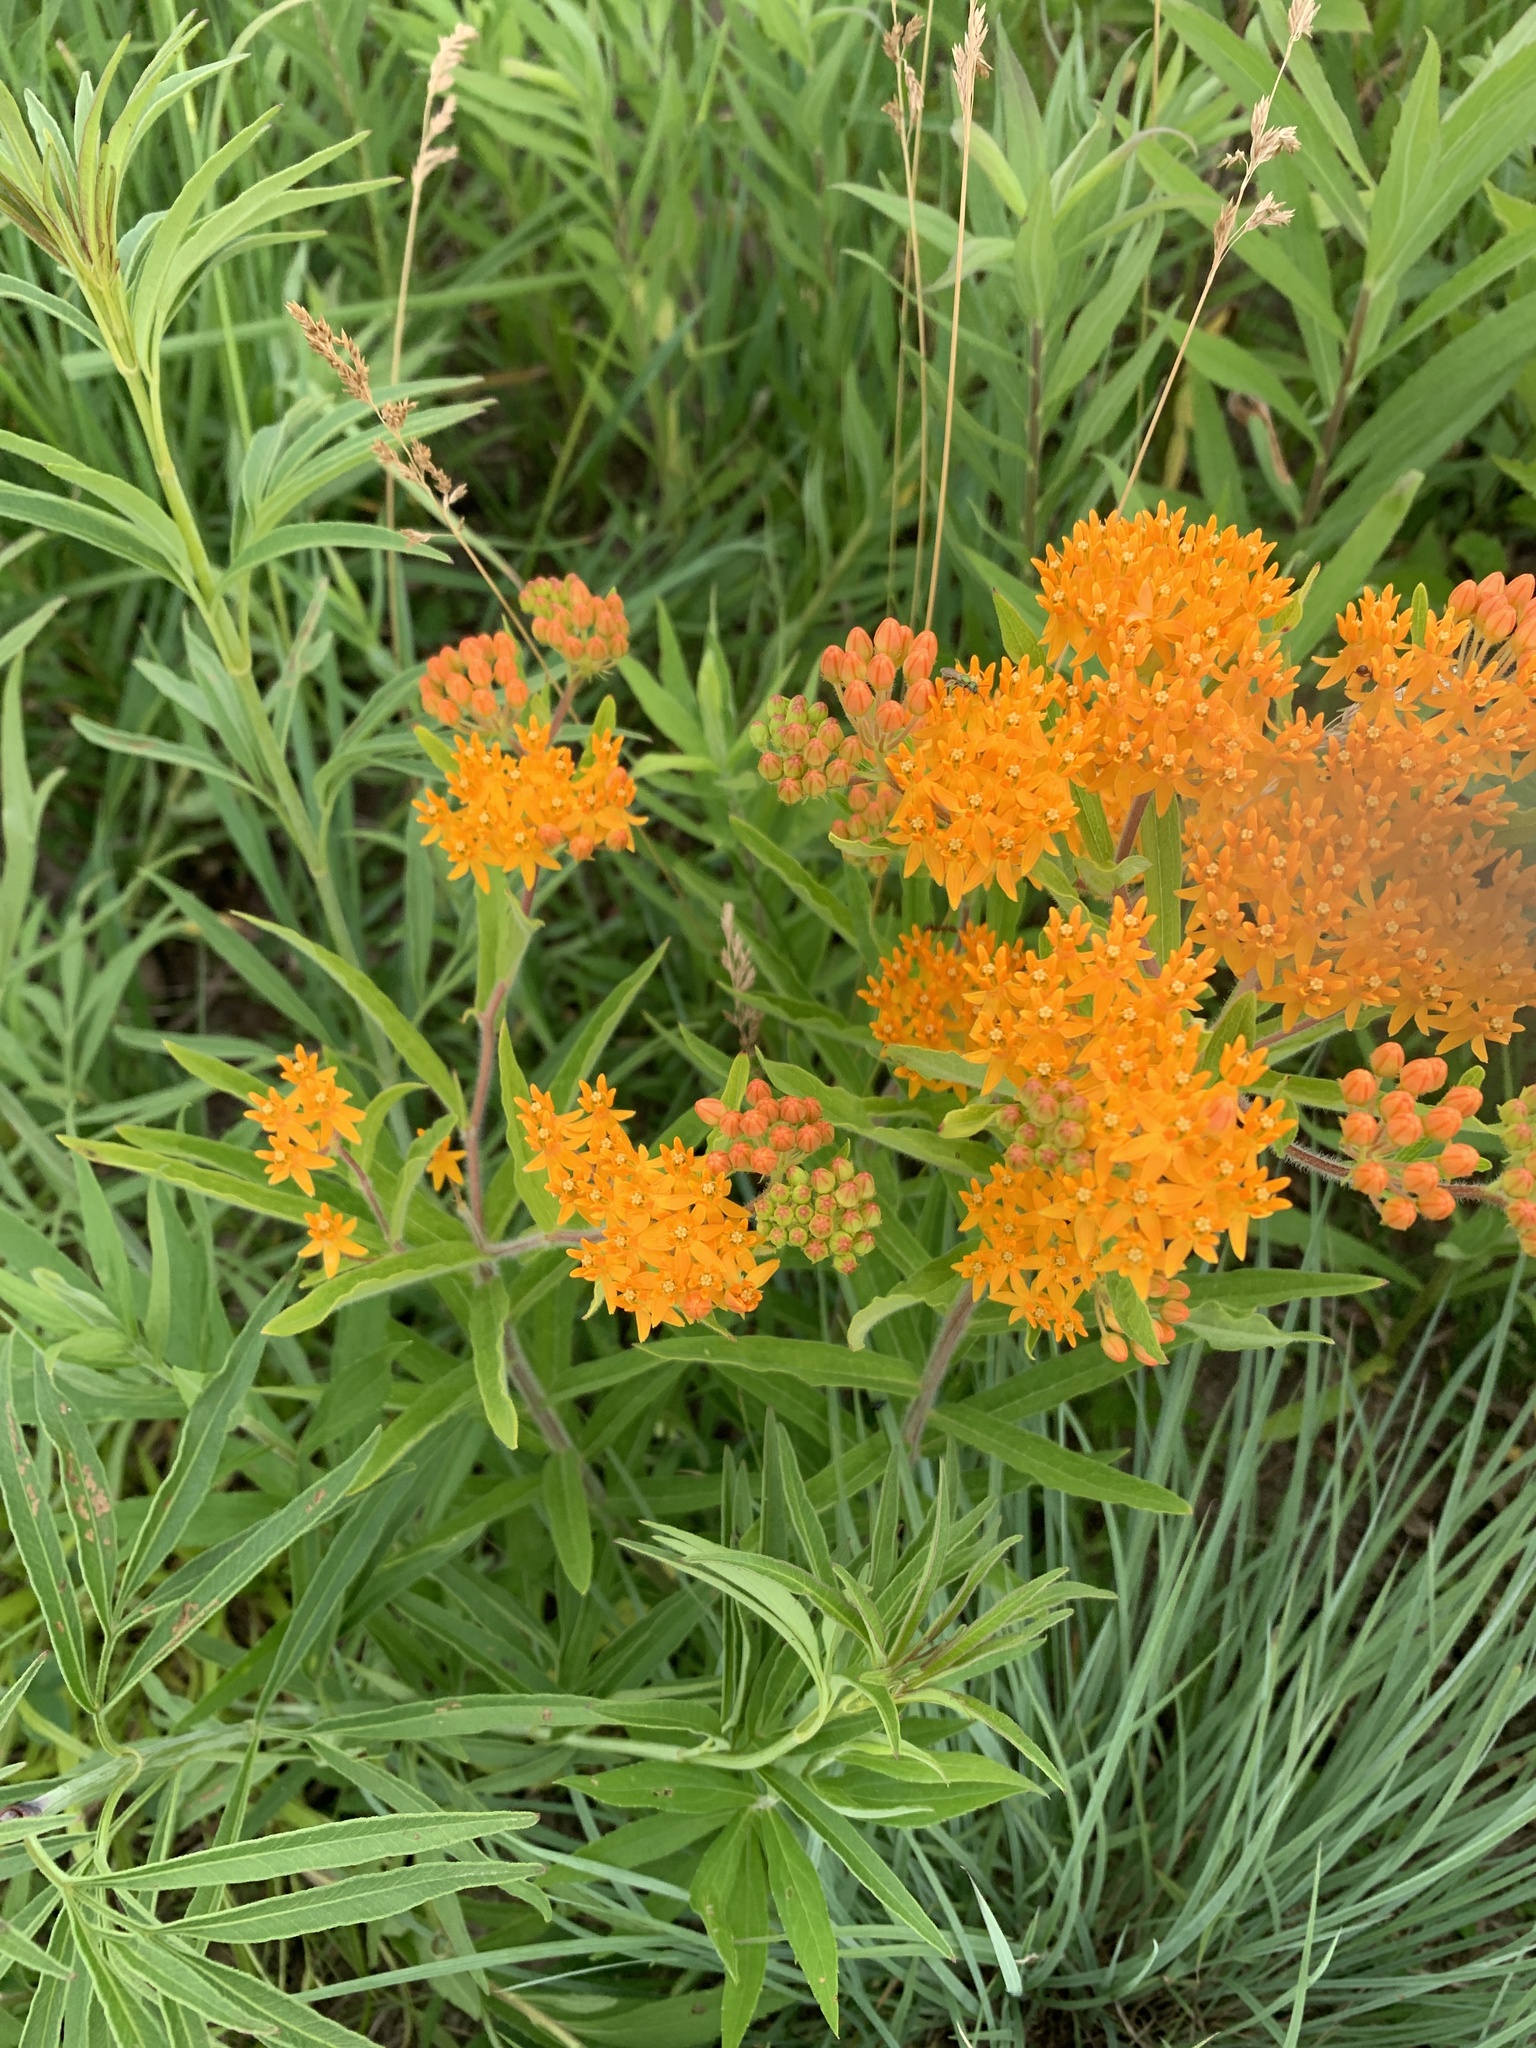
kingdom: Plantae
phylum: Tracheophyta
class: Magnoliopsida
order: Gentianales
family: Apocynaceae
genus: Asclepias
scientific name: Asclepias tuberosa
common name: Butterfly milkweed
